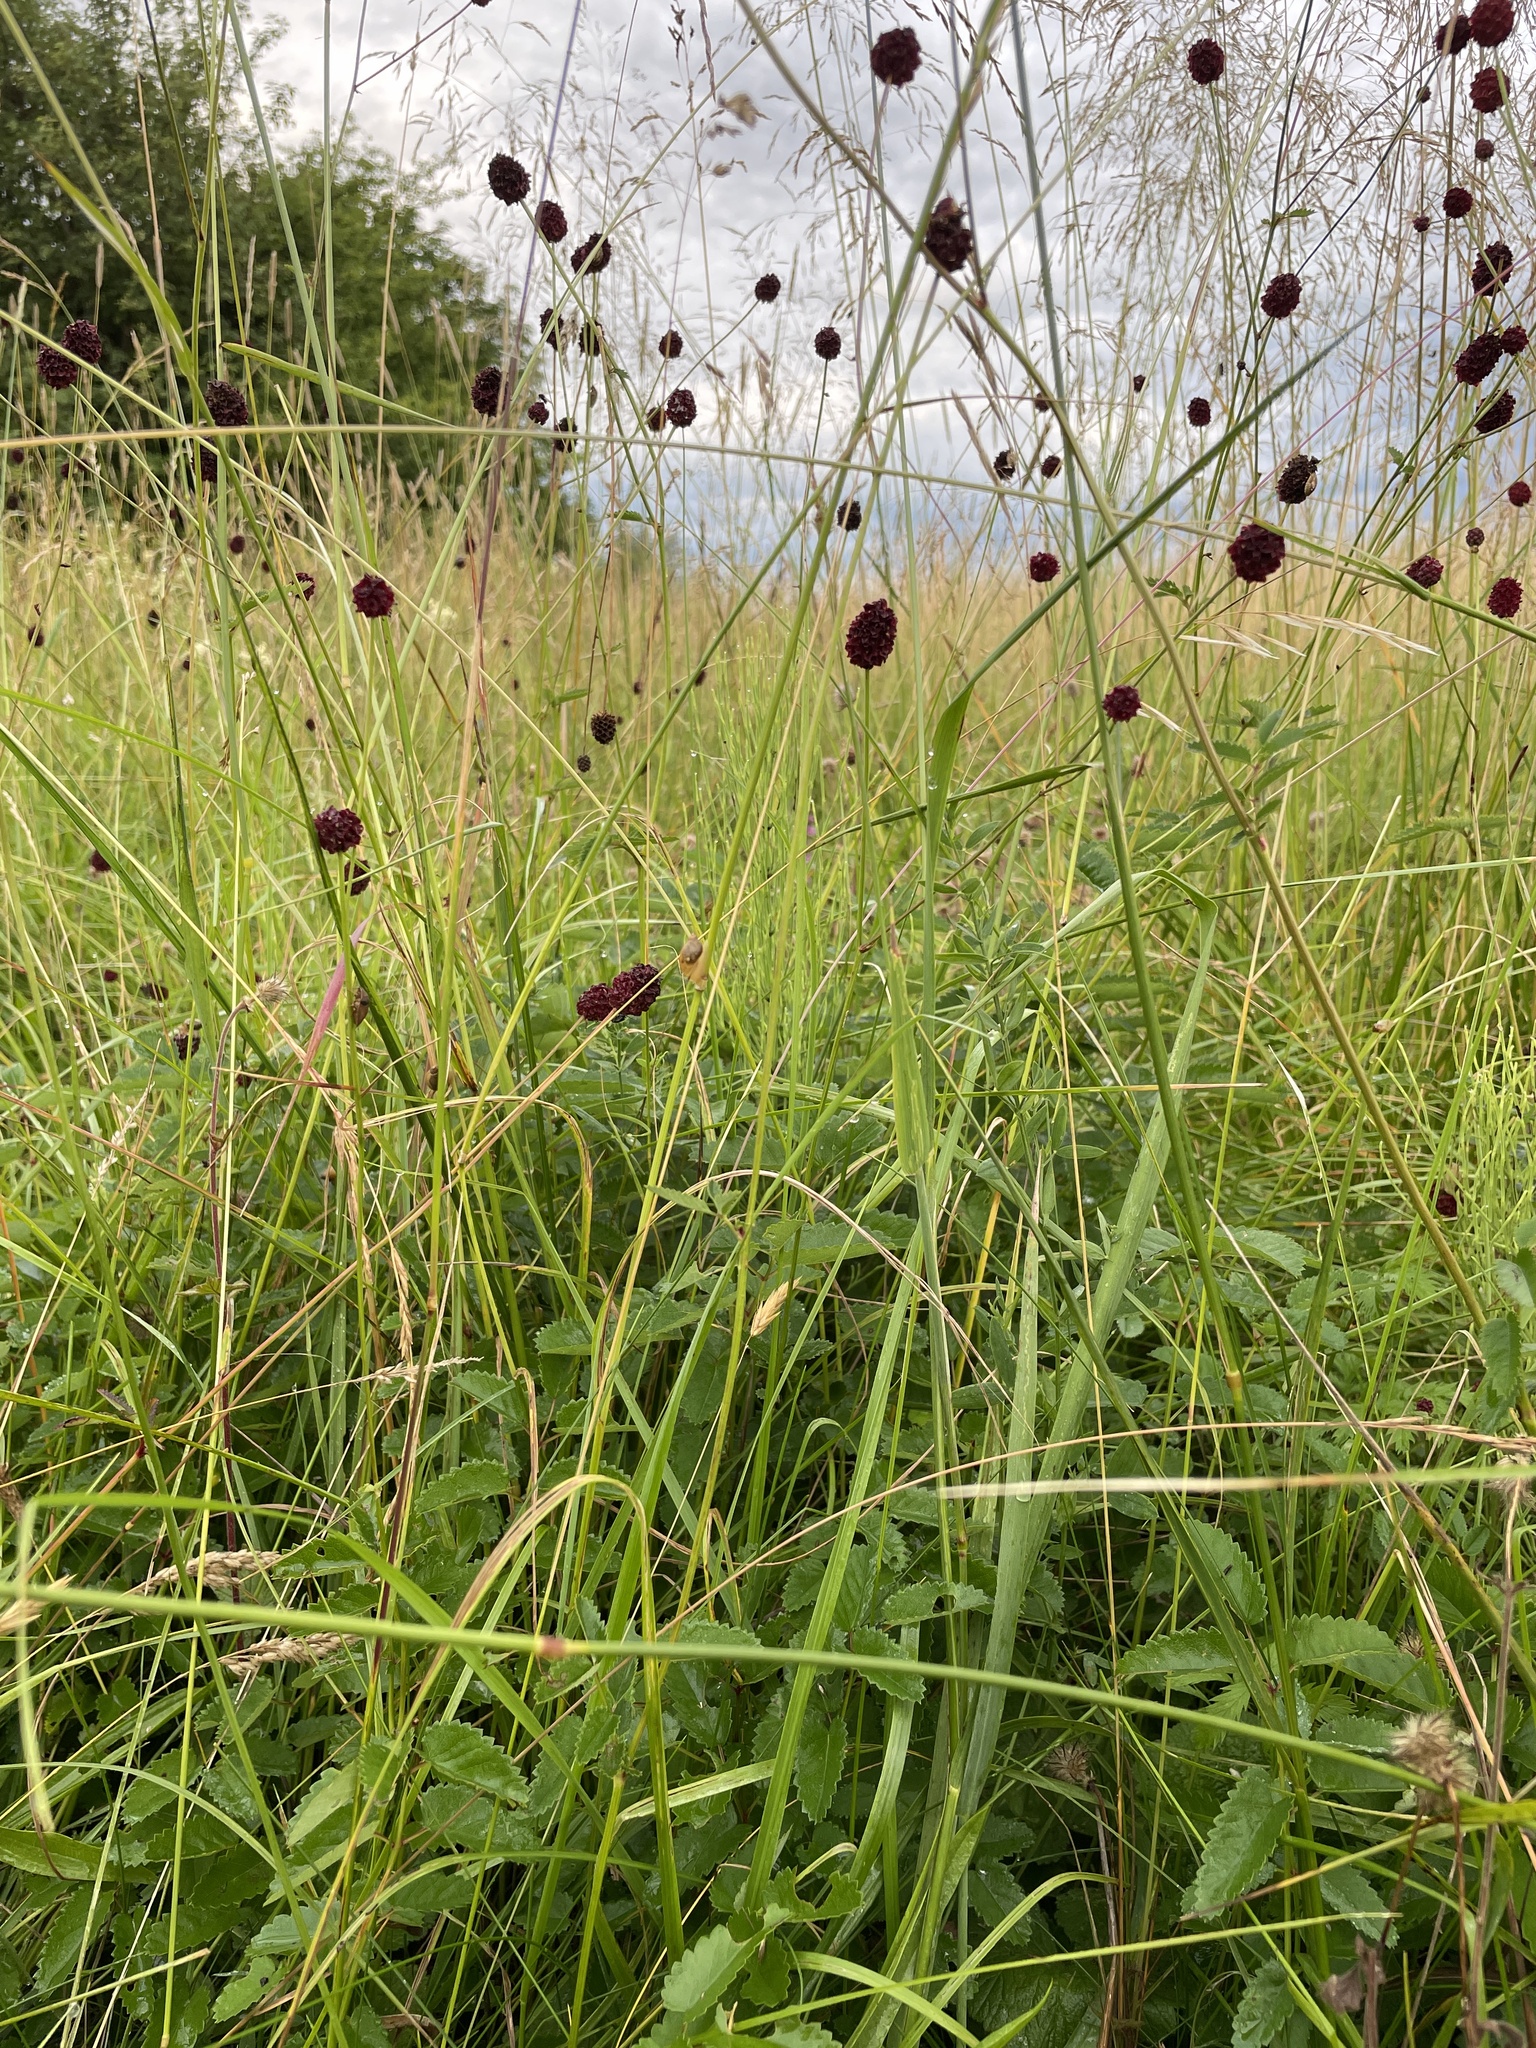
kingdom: Plantae
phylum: Tracheophyta
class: Magnoliopsida
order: Rosales
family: Rosaceae
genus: Sanguisorba
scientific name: Sanguisorba officinalis
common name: Great burnet
